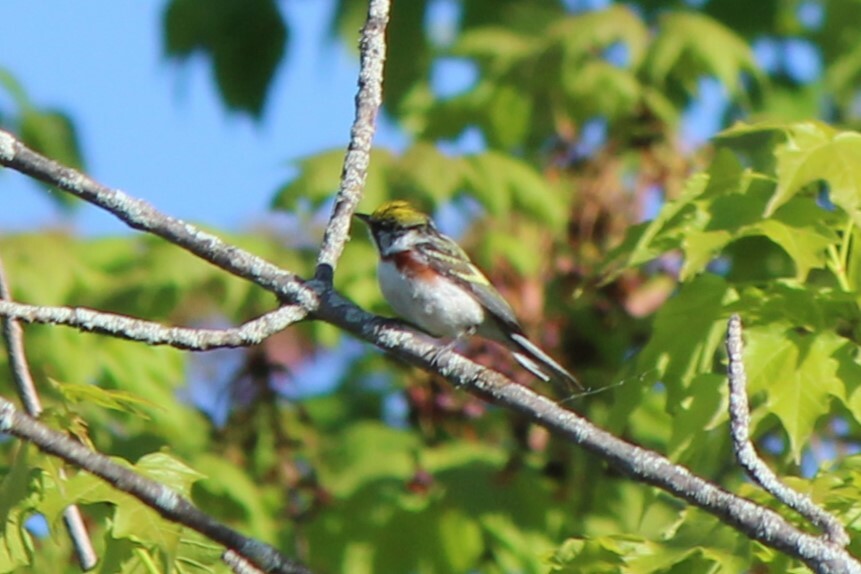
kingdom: Animalia
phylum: Chordata
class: Aves
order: Passeriformes
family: Parulidae
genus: Setophaga
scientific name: Setophaga pensylvanica
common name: Chestnut-sided warbler
